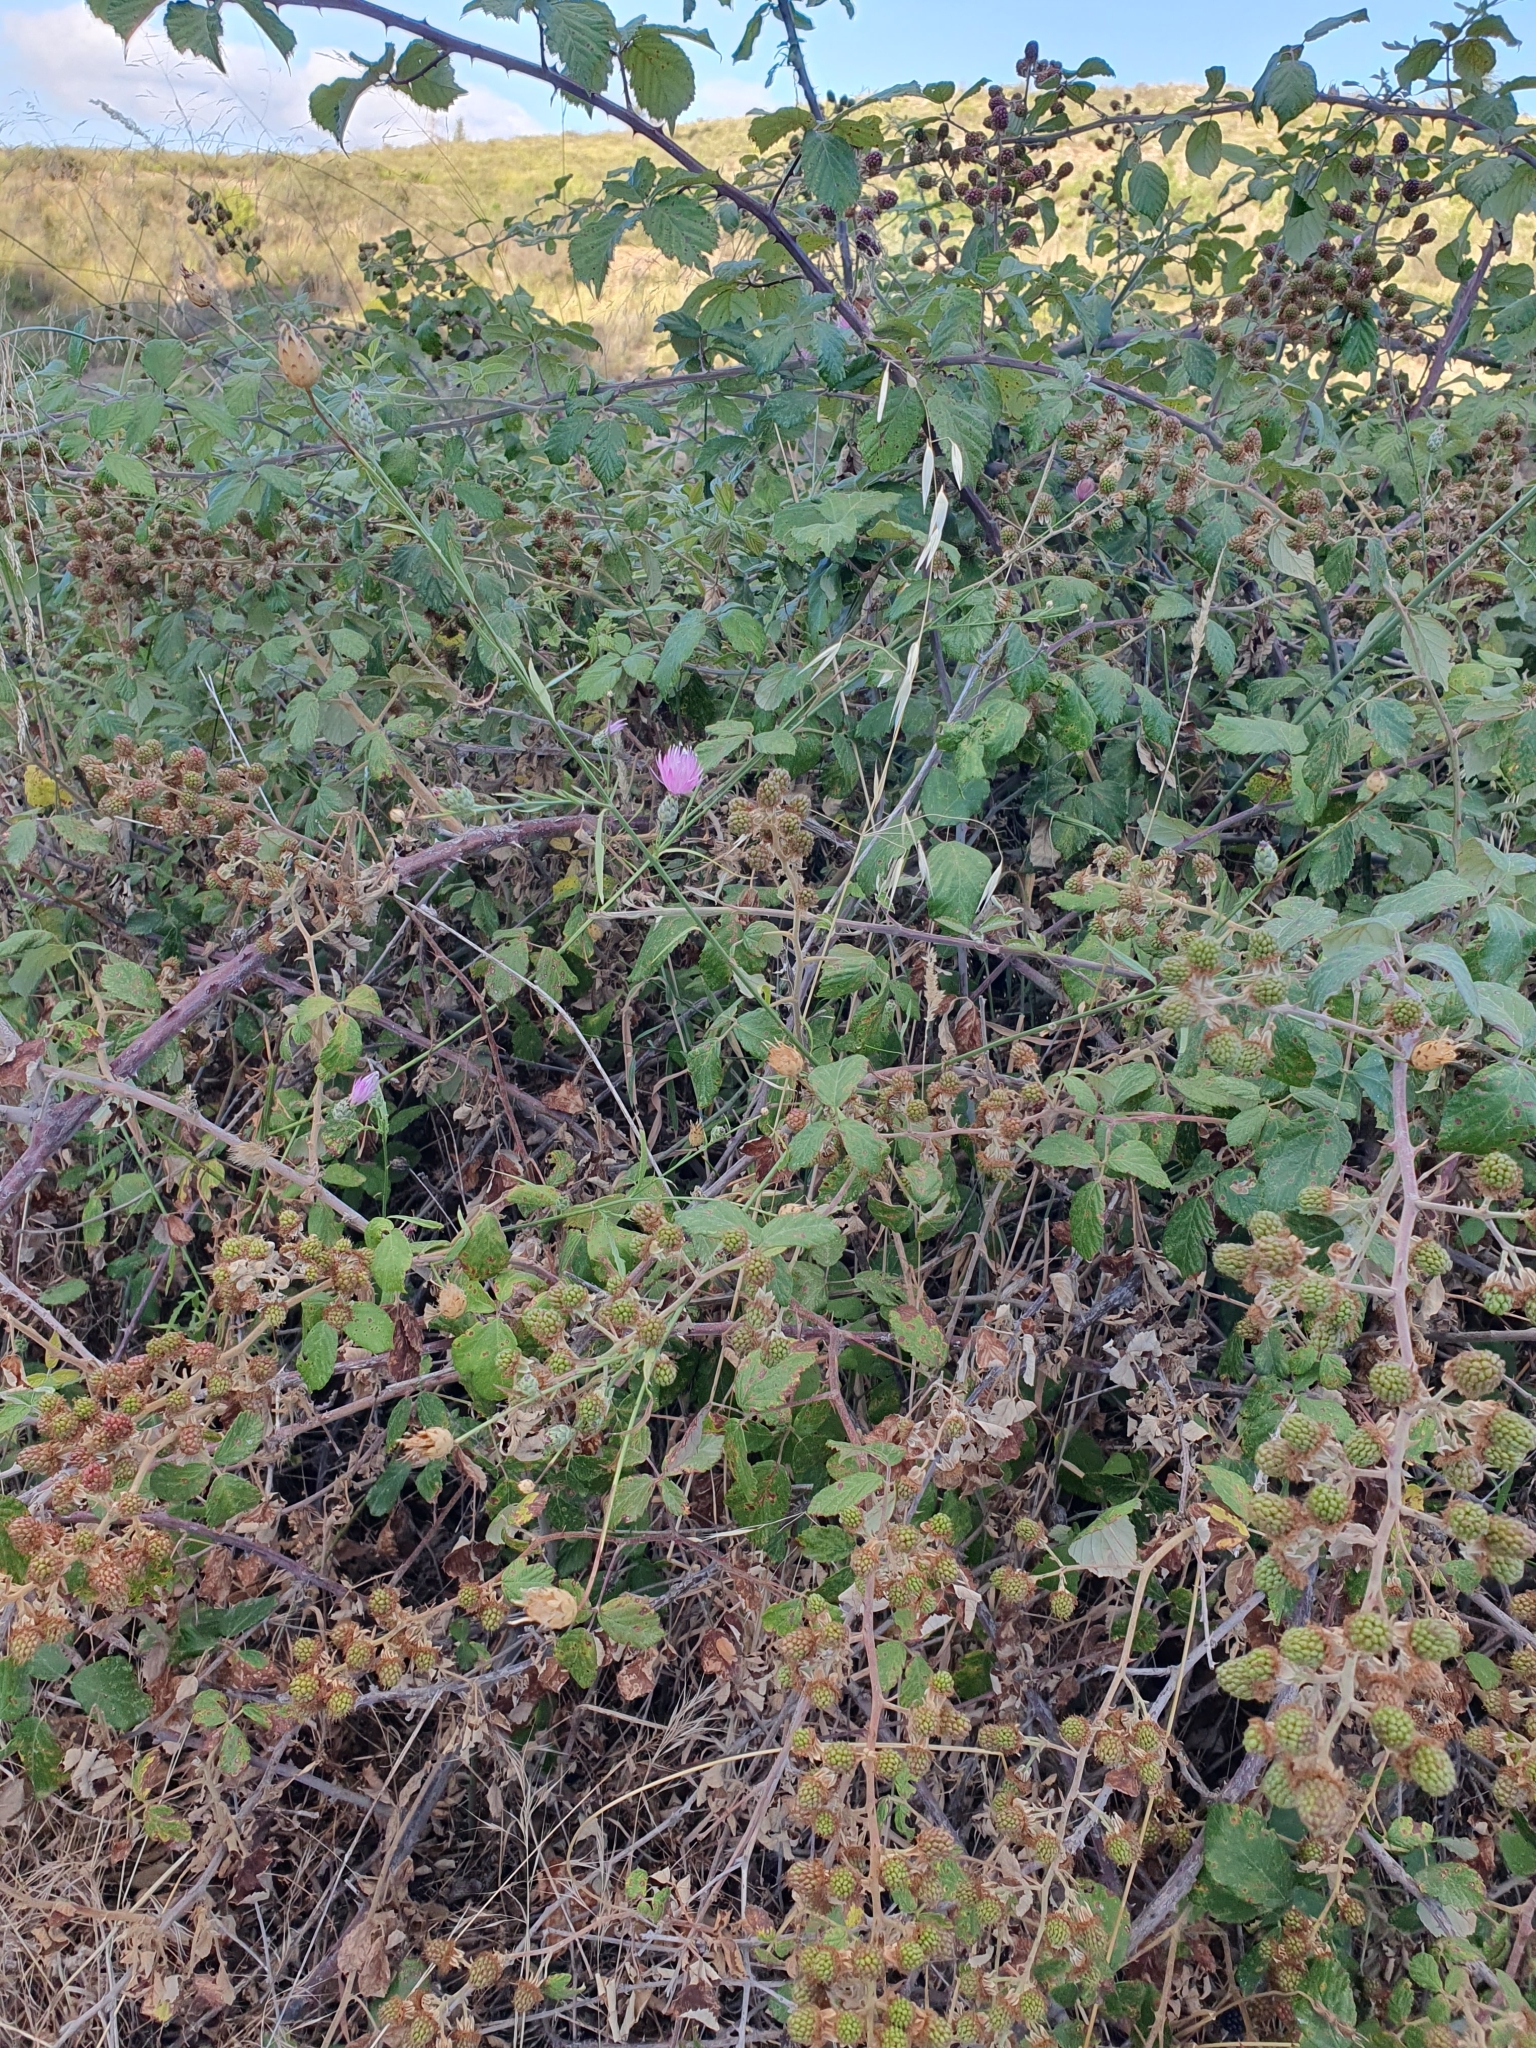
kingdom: Plantae
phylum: Tracheophyta
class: Magnoliopsida
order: Rosales
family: Rosaceae
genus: Rubus
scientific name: Rubus ulmifolius
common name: Elmleaf blackberry
